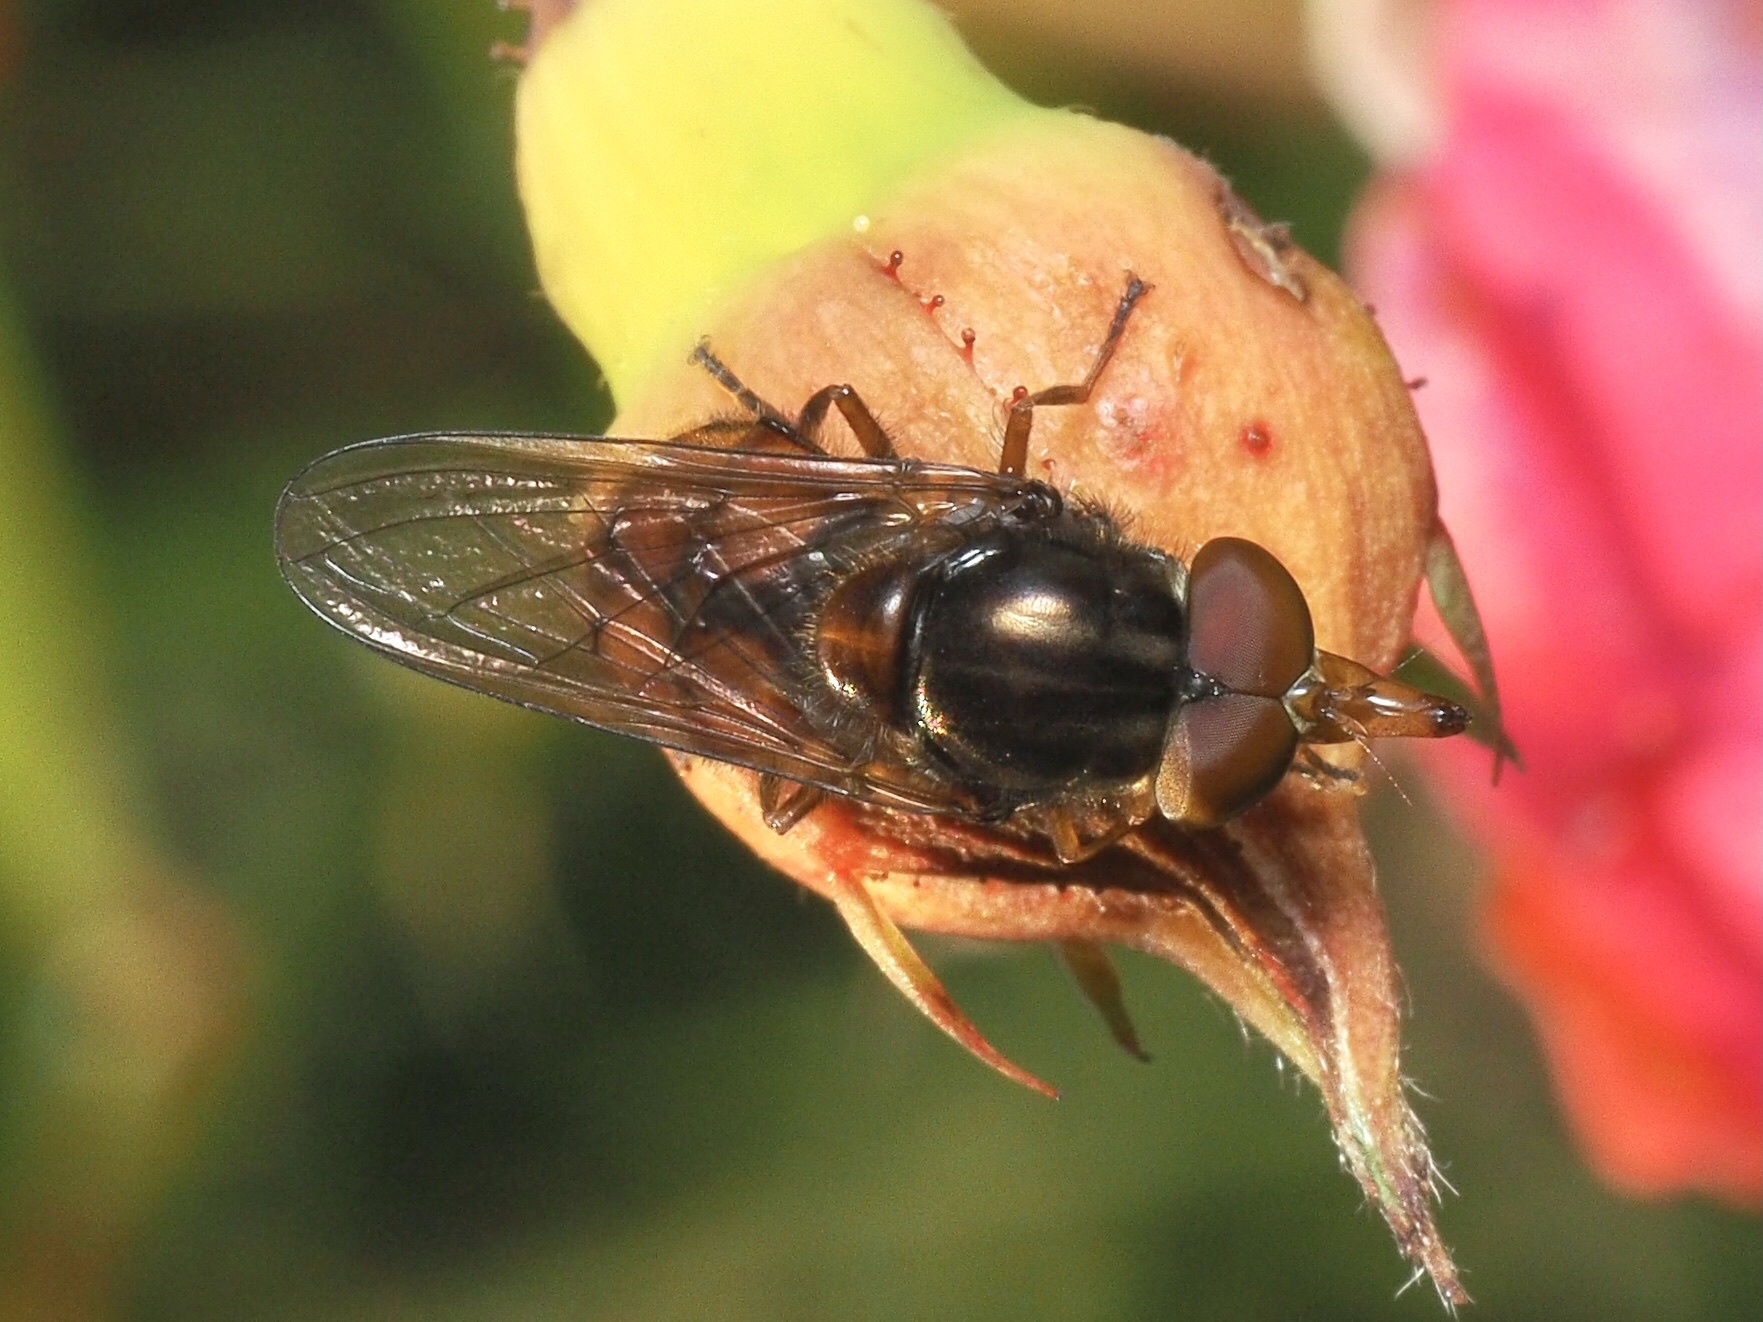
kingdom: Animalia
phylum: Arthropoda
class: Insecta
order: Diptera
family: Syrphidae
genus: Rhingia
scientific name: Rhingia campestris
